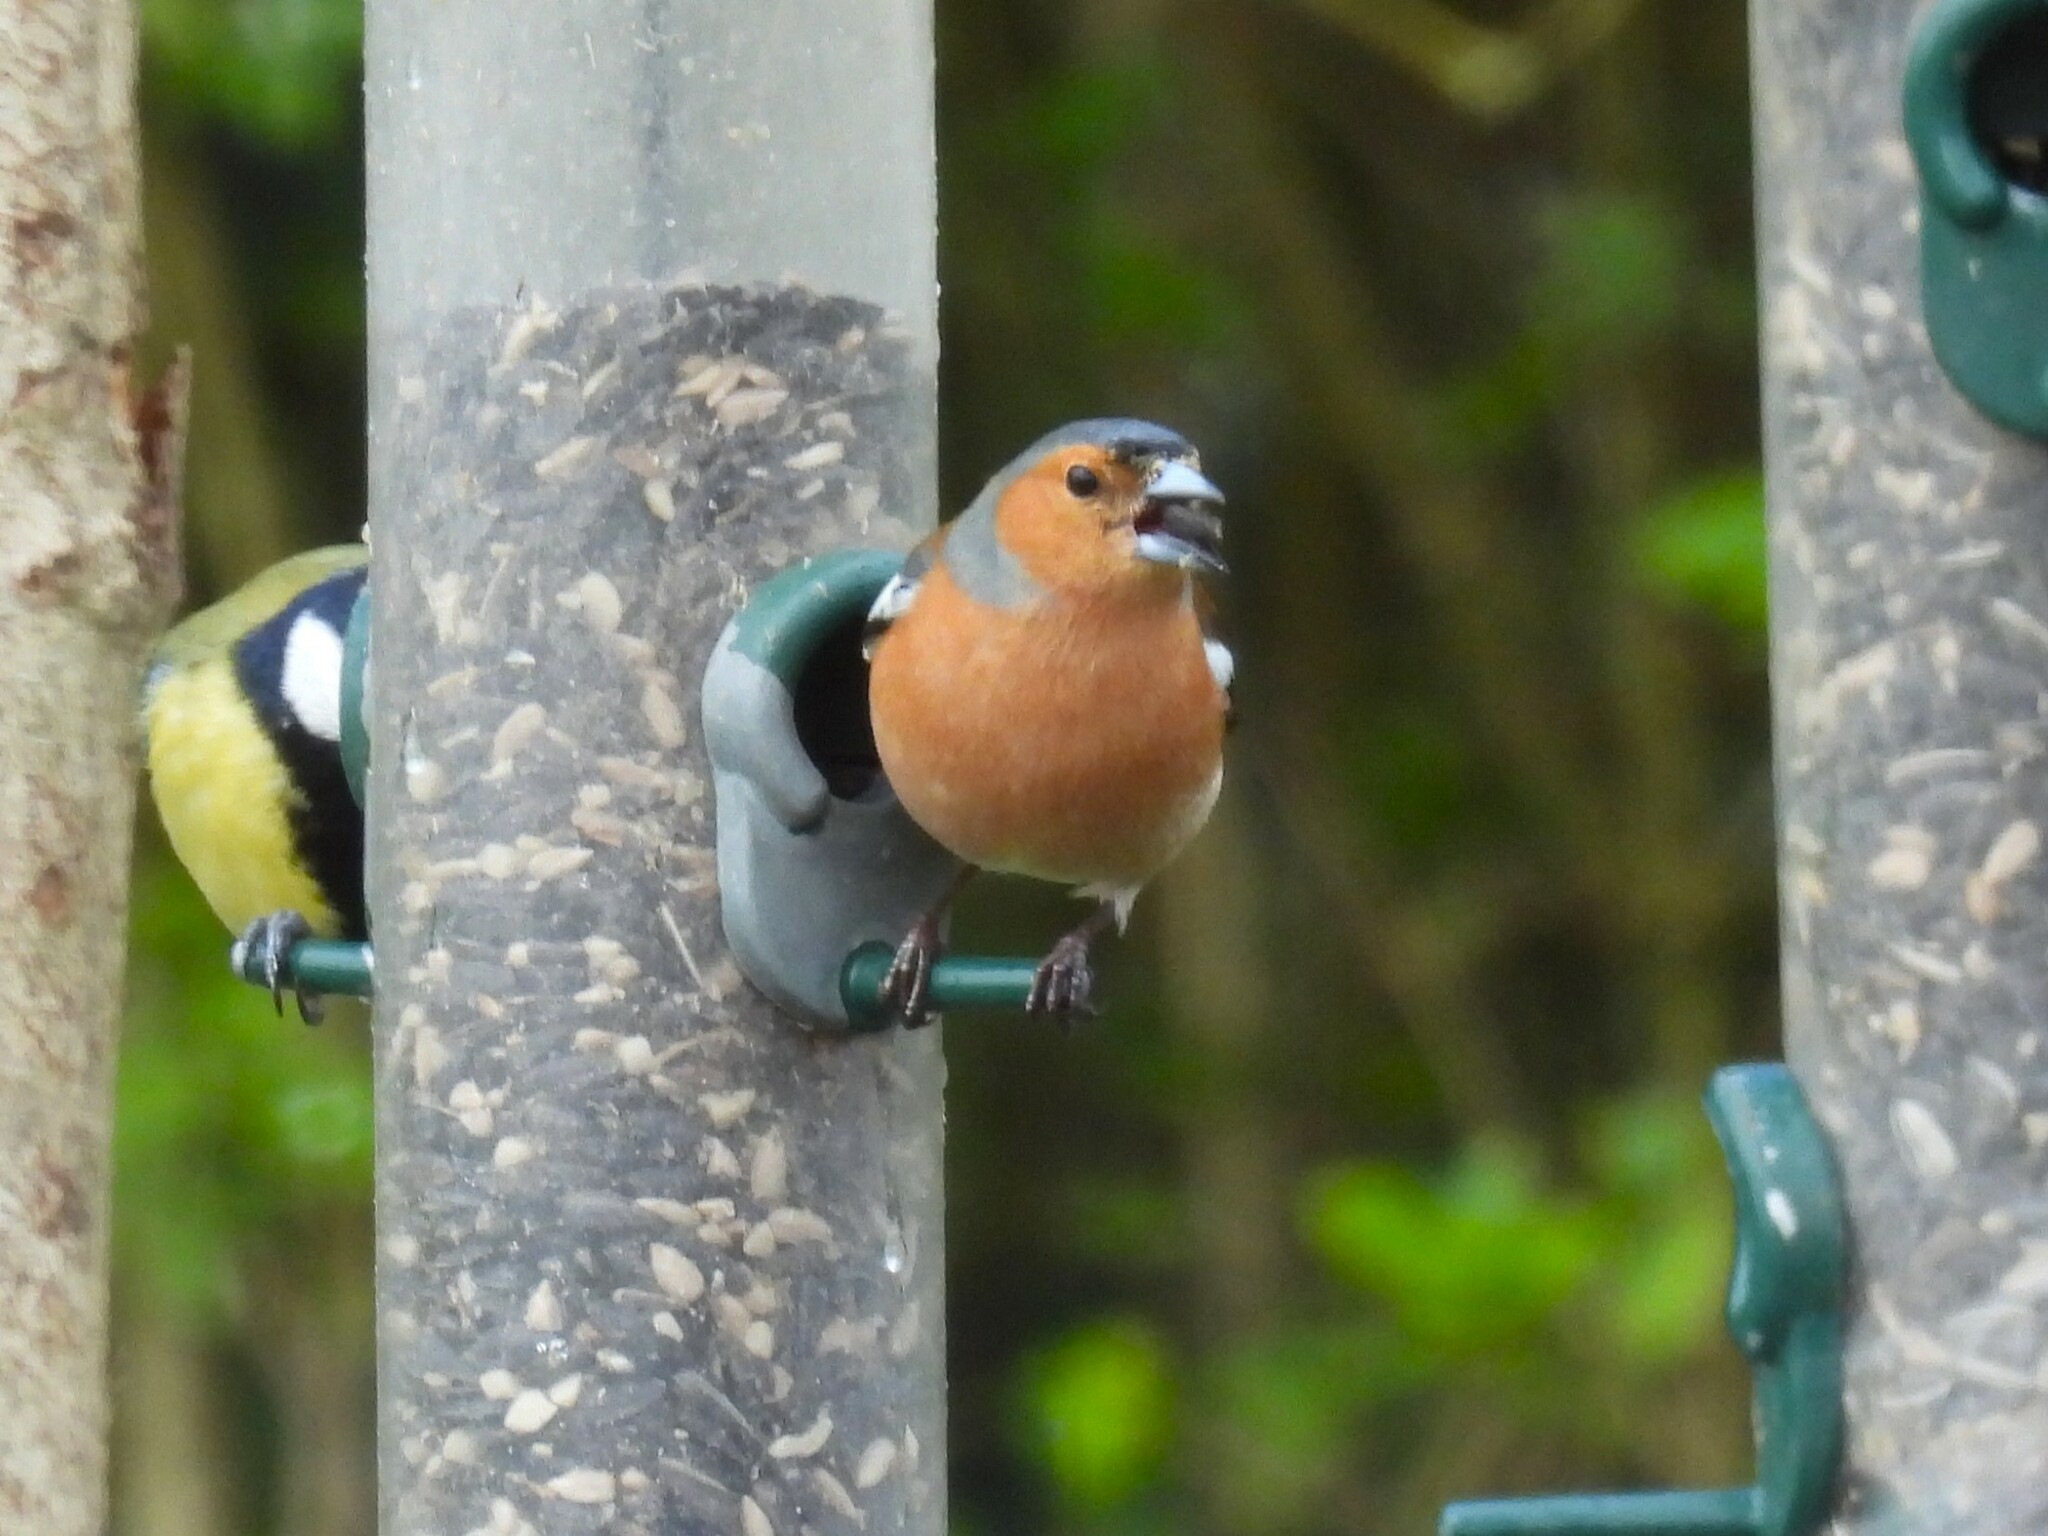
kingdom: Animalia
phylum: Chordata
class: Aves
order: Passeriformes
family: Fringillidae
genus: Fringilla
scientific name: Fringilla coelebs
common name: Common chaffinch
